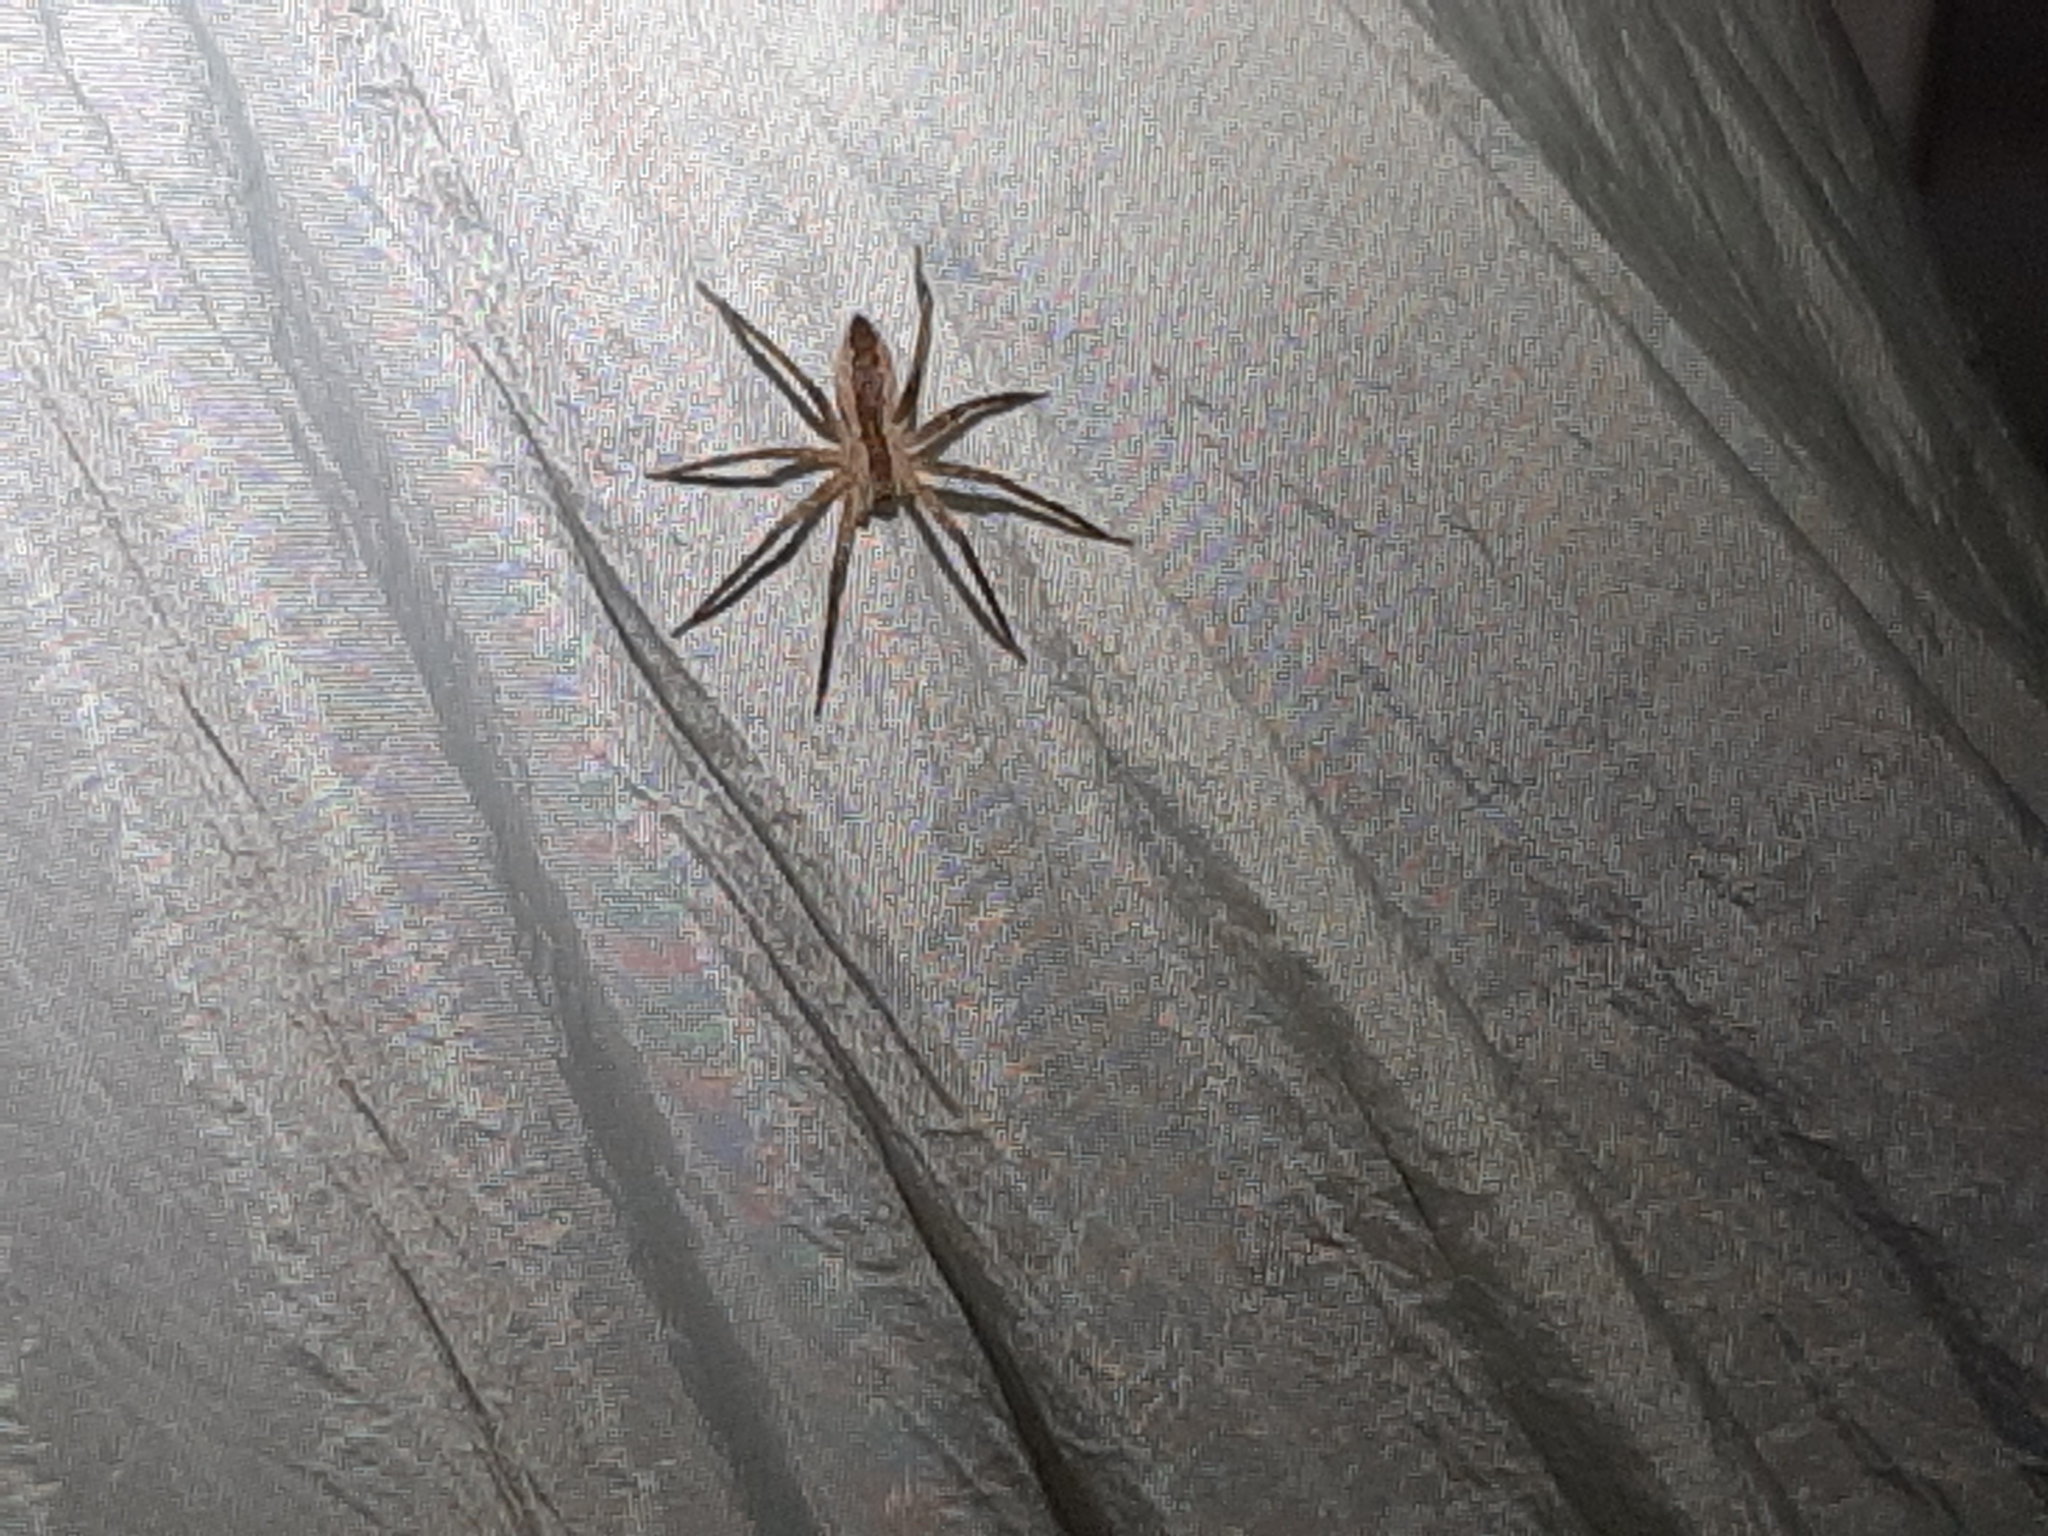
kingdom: Animalia
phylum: Arthropoda
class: Arachnida
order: Araneae
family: Pisauridae
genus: Pisaurina
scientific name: Pisaurina mira
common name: American nursery web spider
